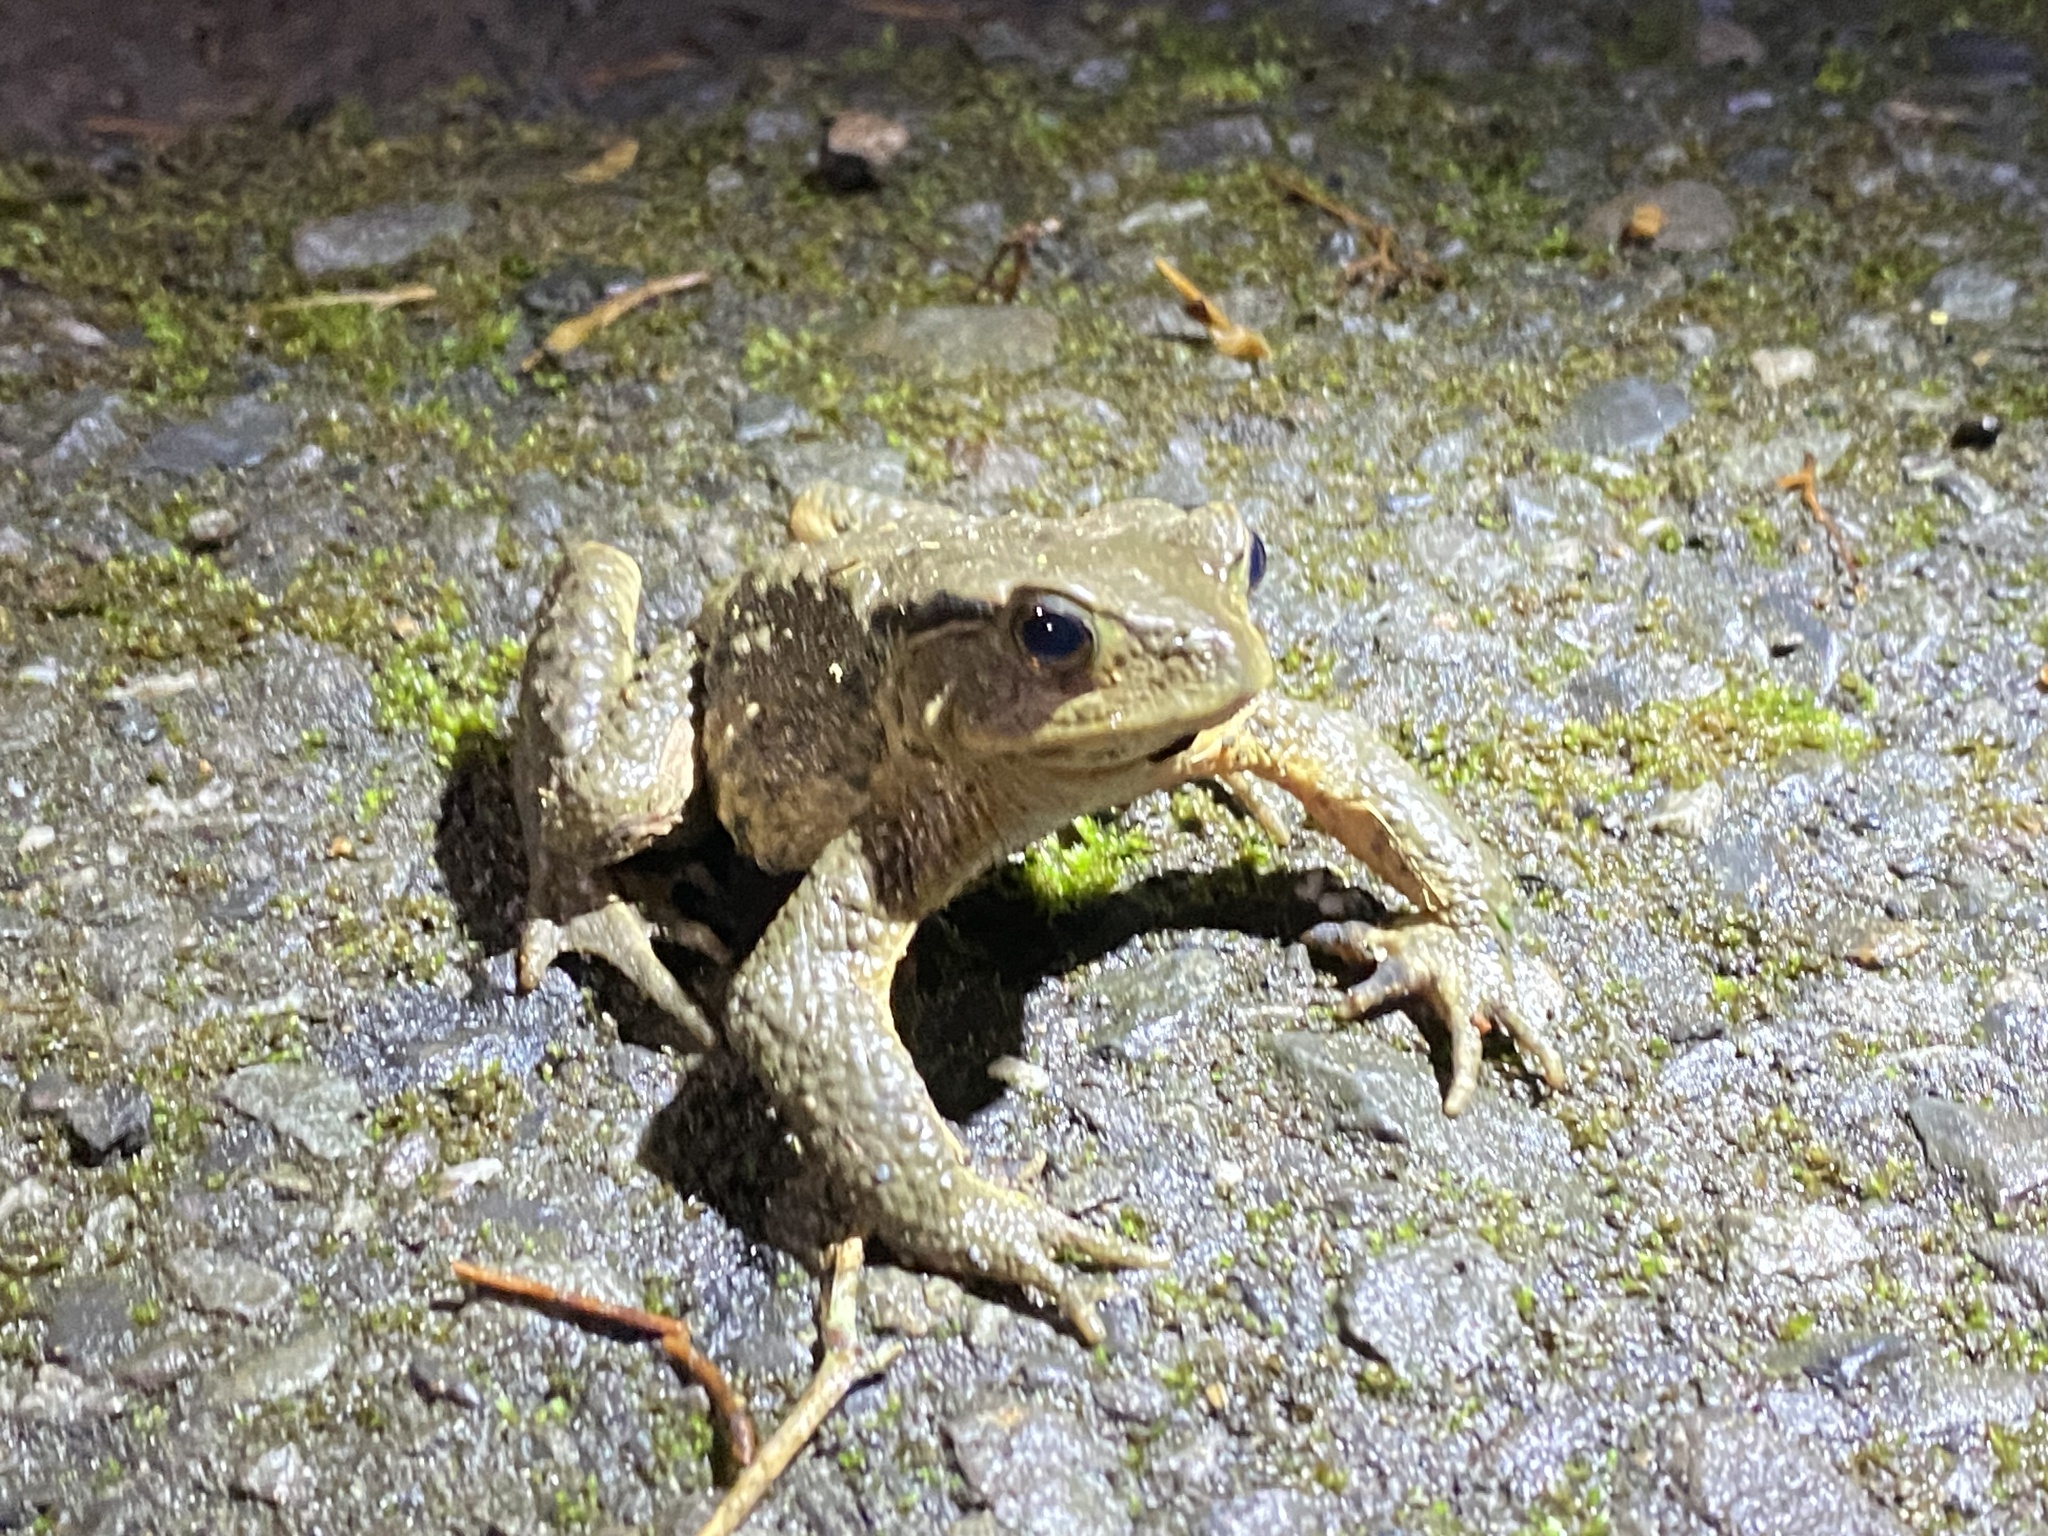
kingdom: Animalia
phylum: Chordata
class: Amphibia
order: Anura
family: Bufonidae
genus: Bufo
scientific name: Bufo bankorensis
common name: Bankor toad
